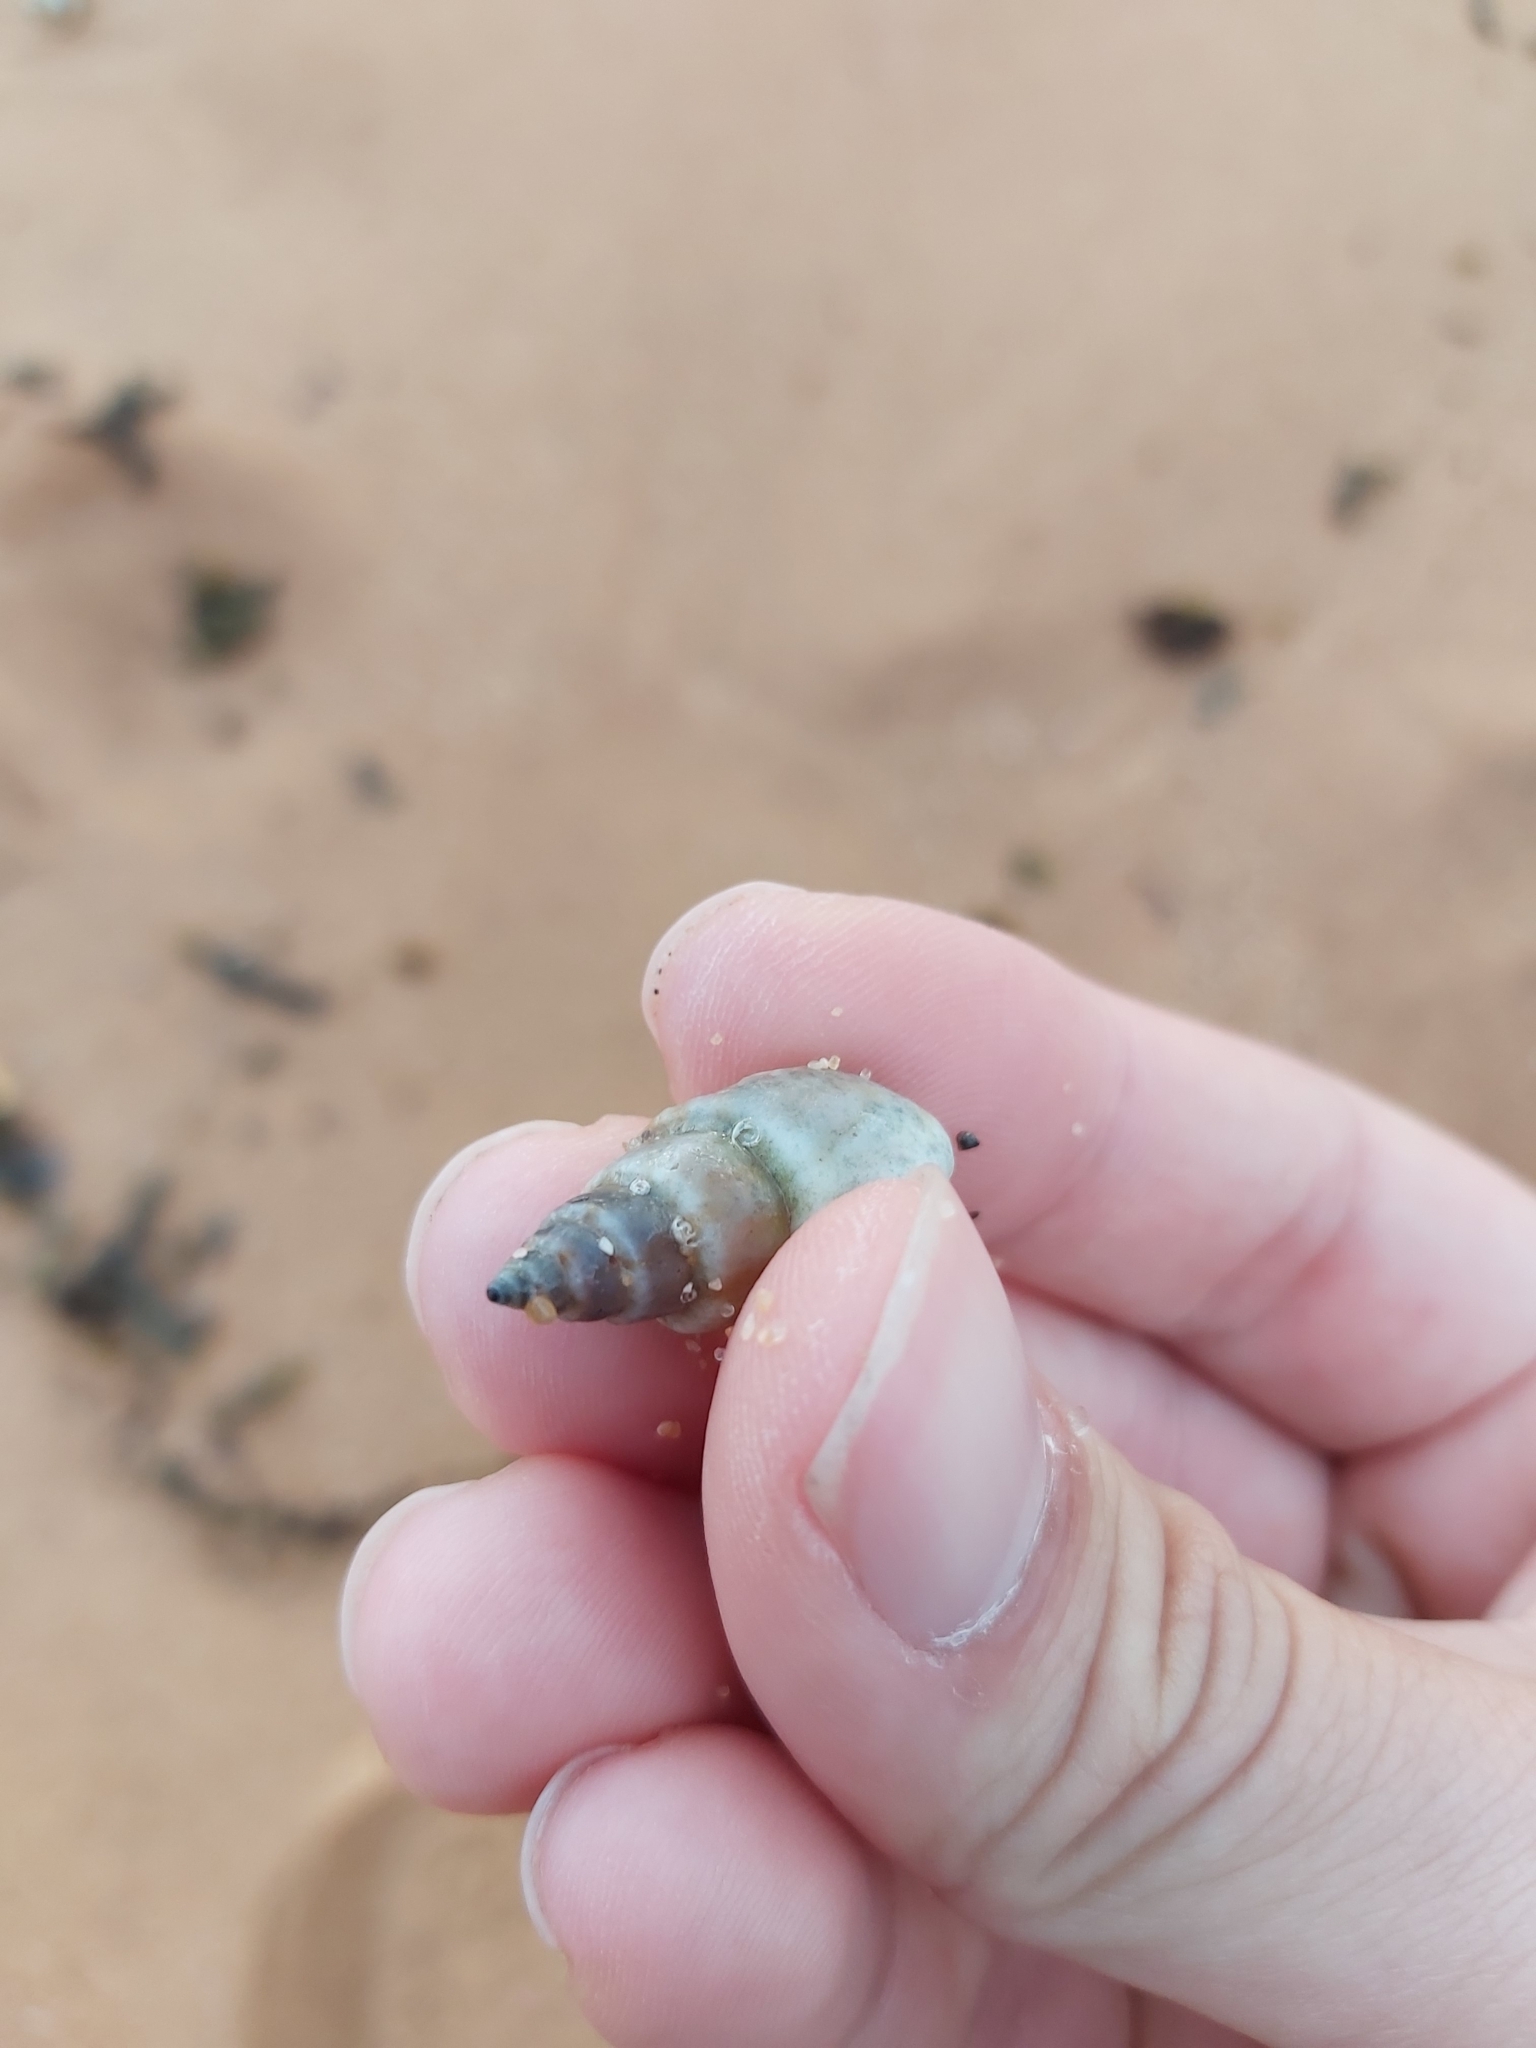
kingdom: Animalia
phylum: Mollusca
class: Gastropoda
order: Neogastropoda
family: Nassariidae
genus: Nassarius
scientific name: Nassarius particeps
